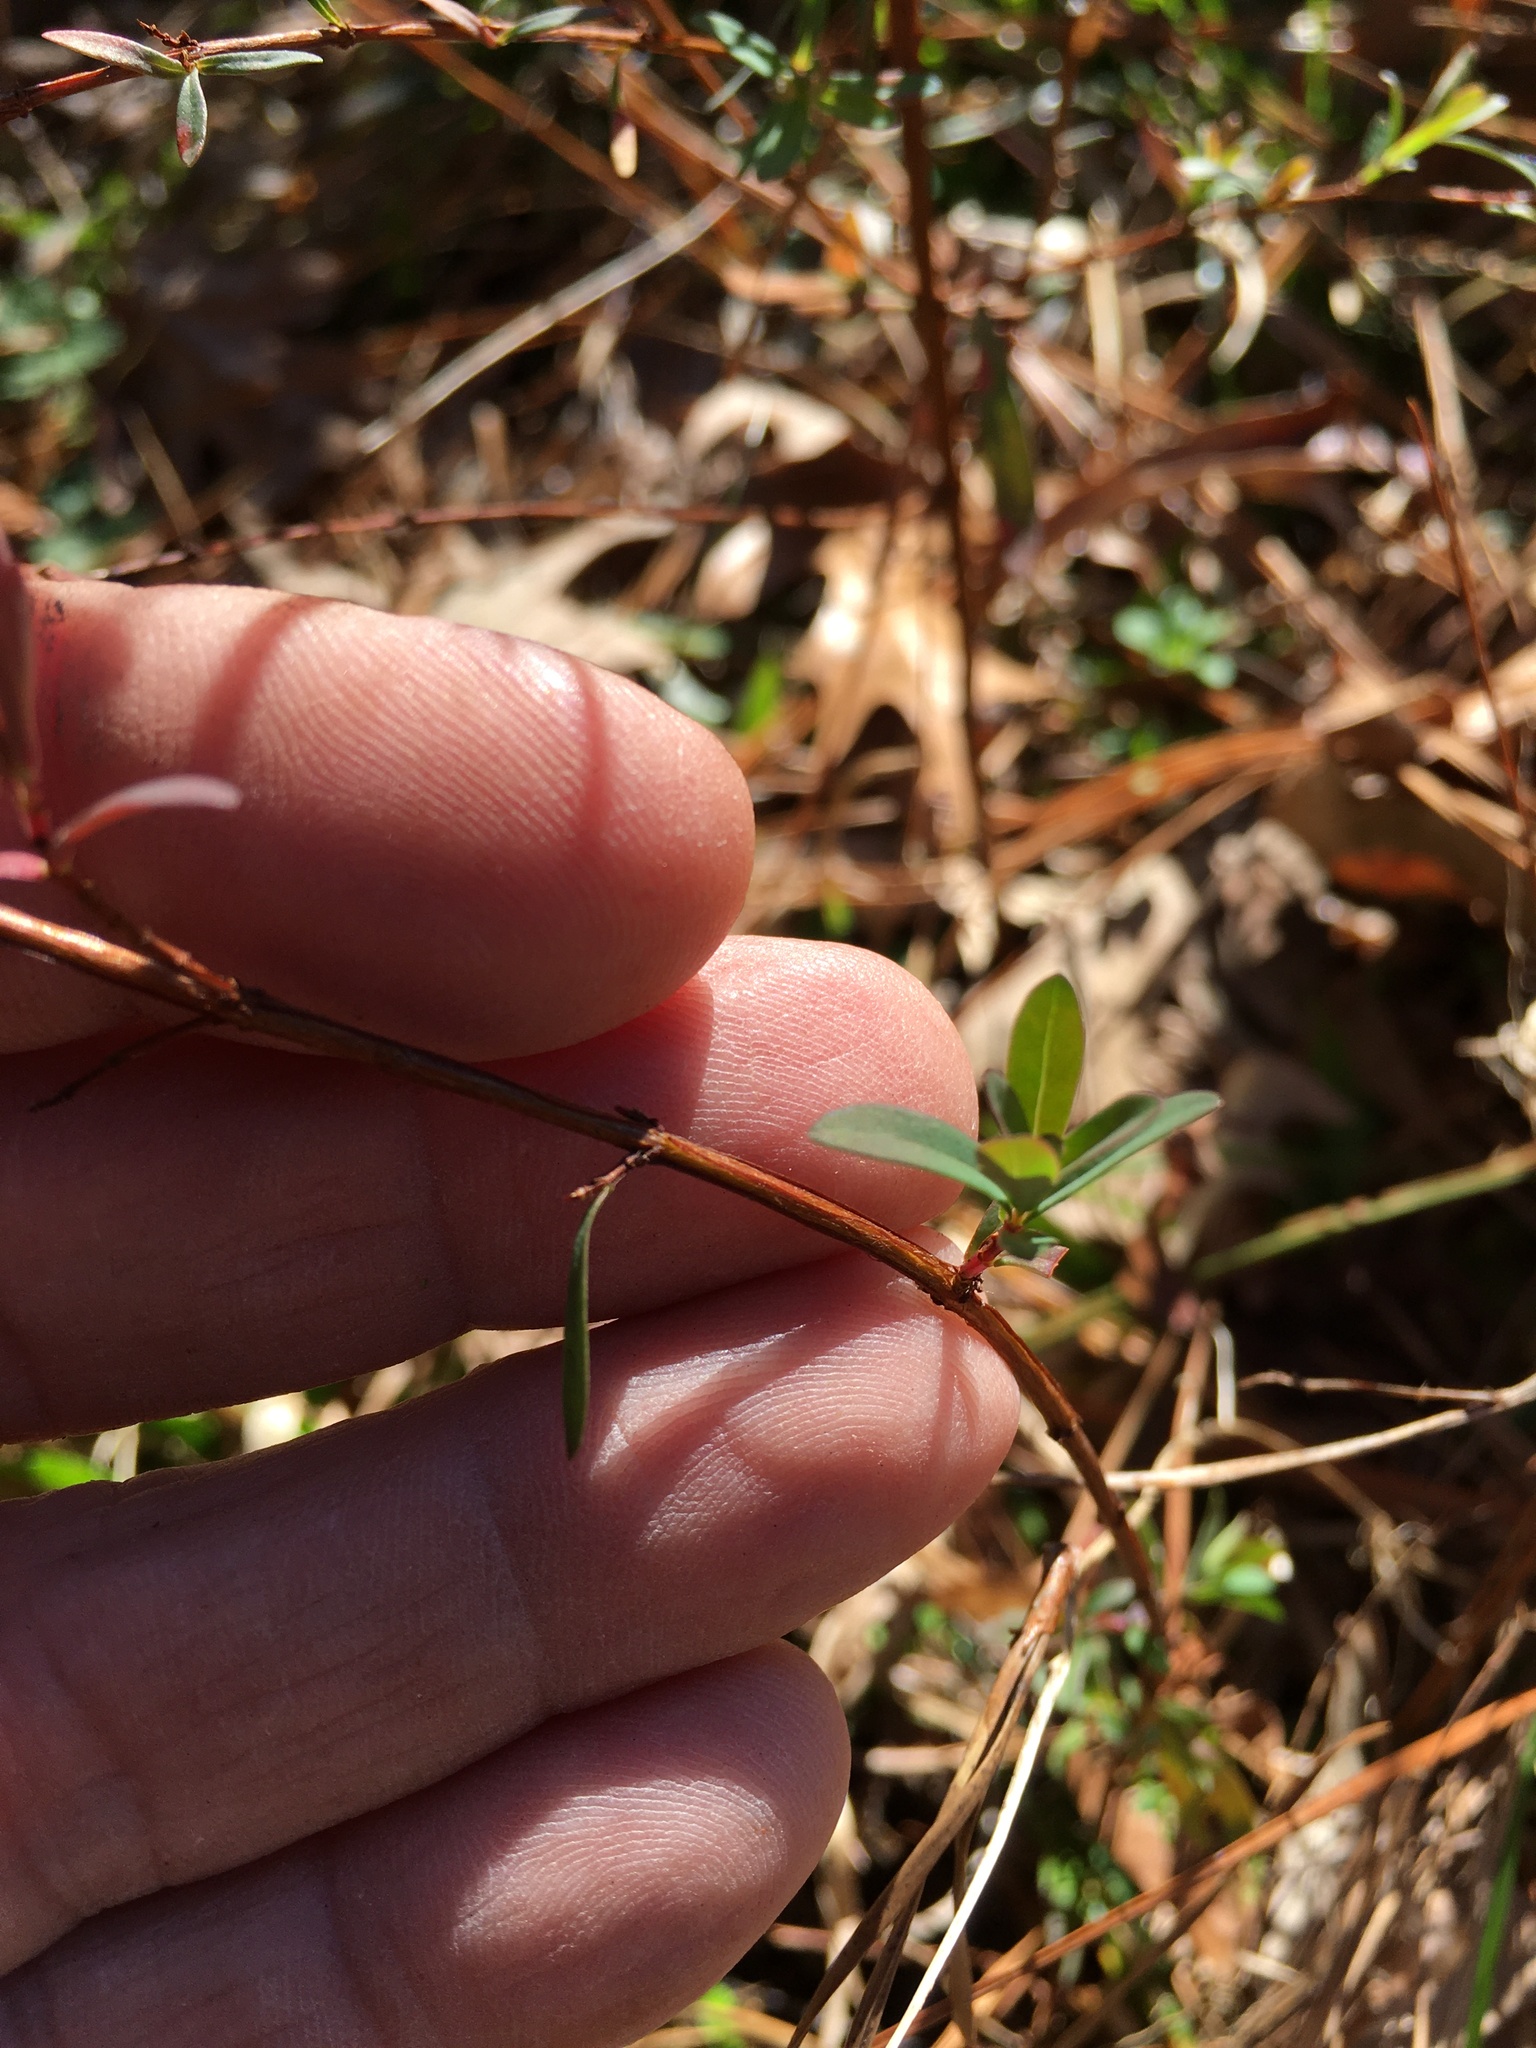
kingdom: Plantae
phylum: Tracheophyta
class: Magnoliopsida
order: Malpighiales
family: Hypericaceae
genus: Hypericum
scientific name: Hypericum hypericoides
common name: St. andrew's cross
